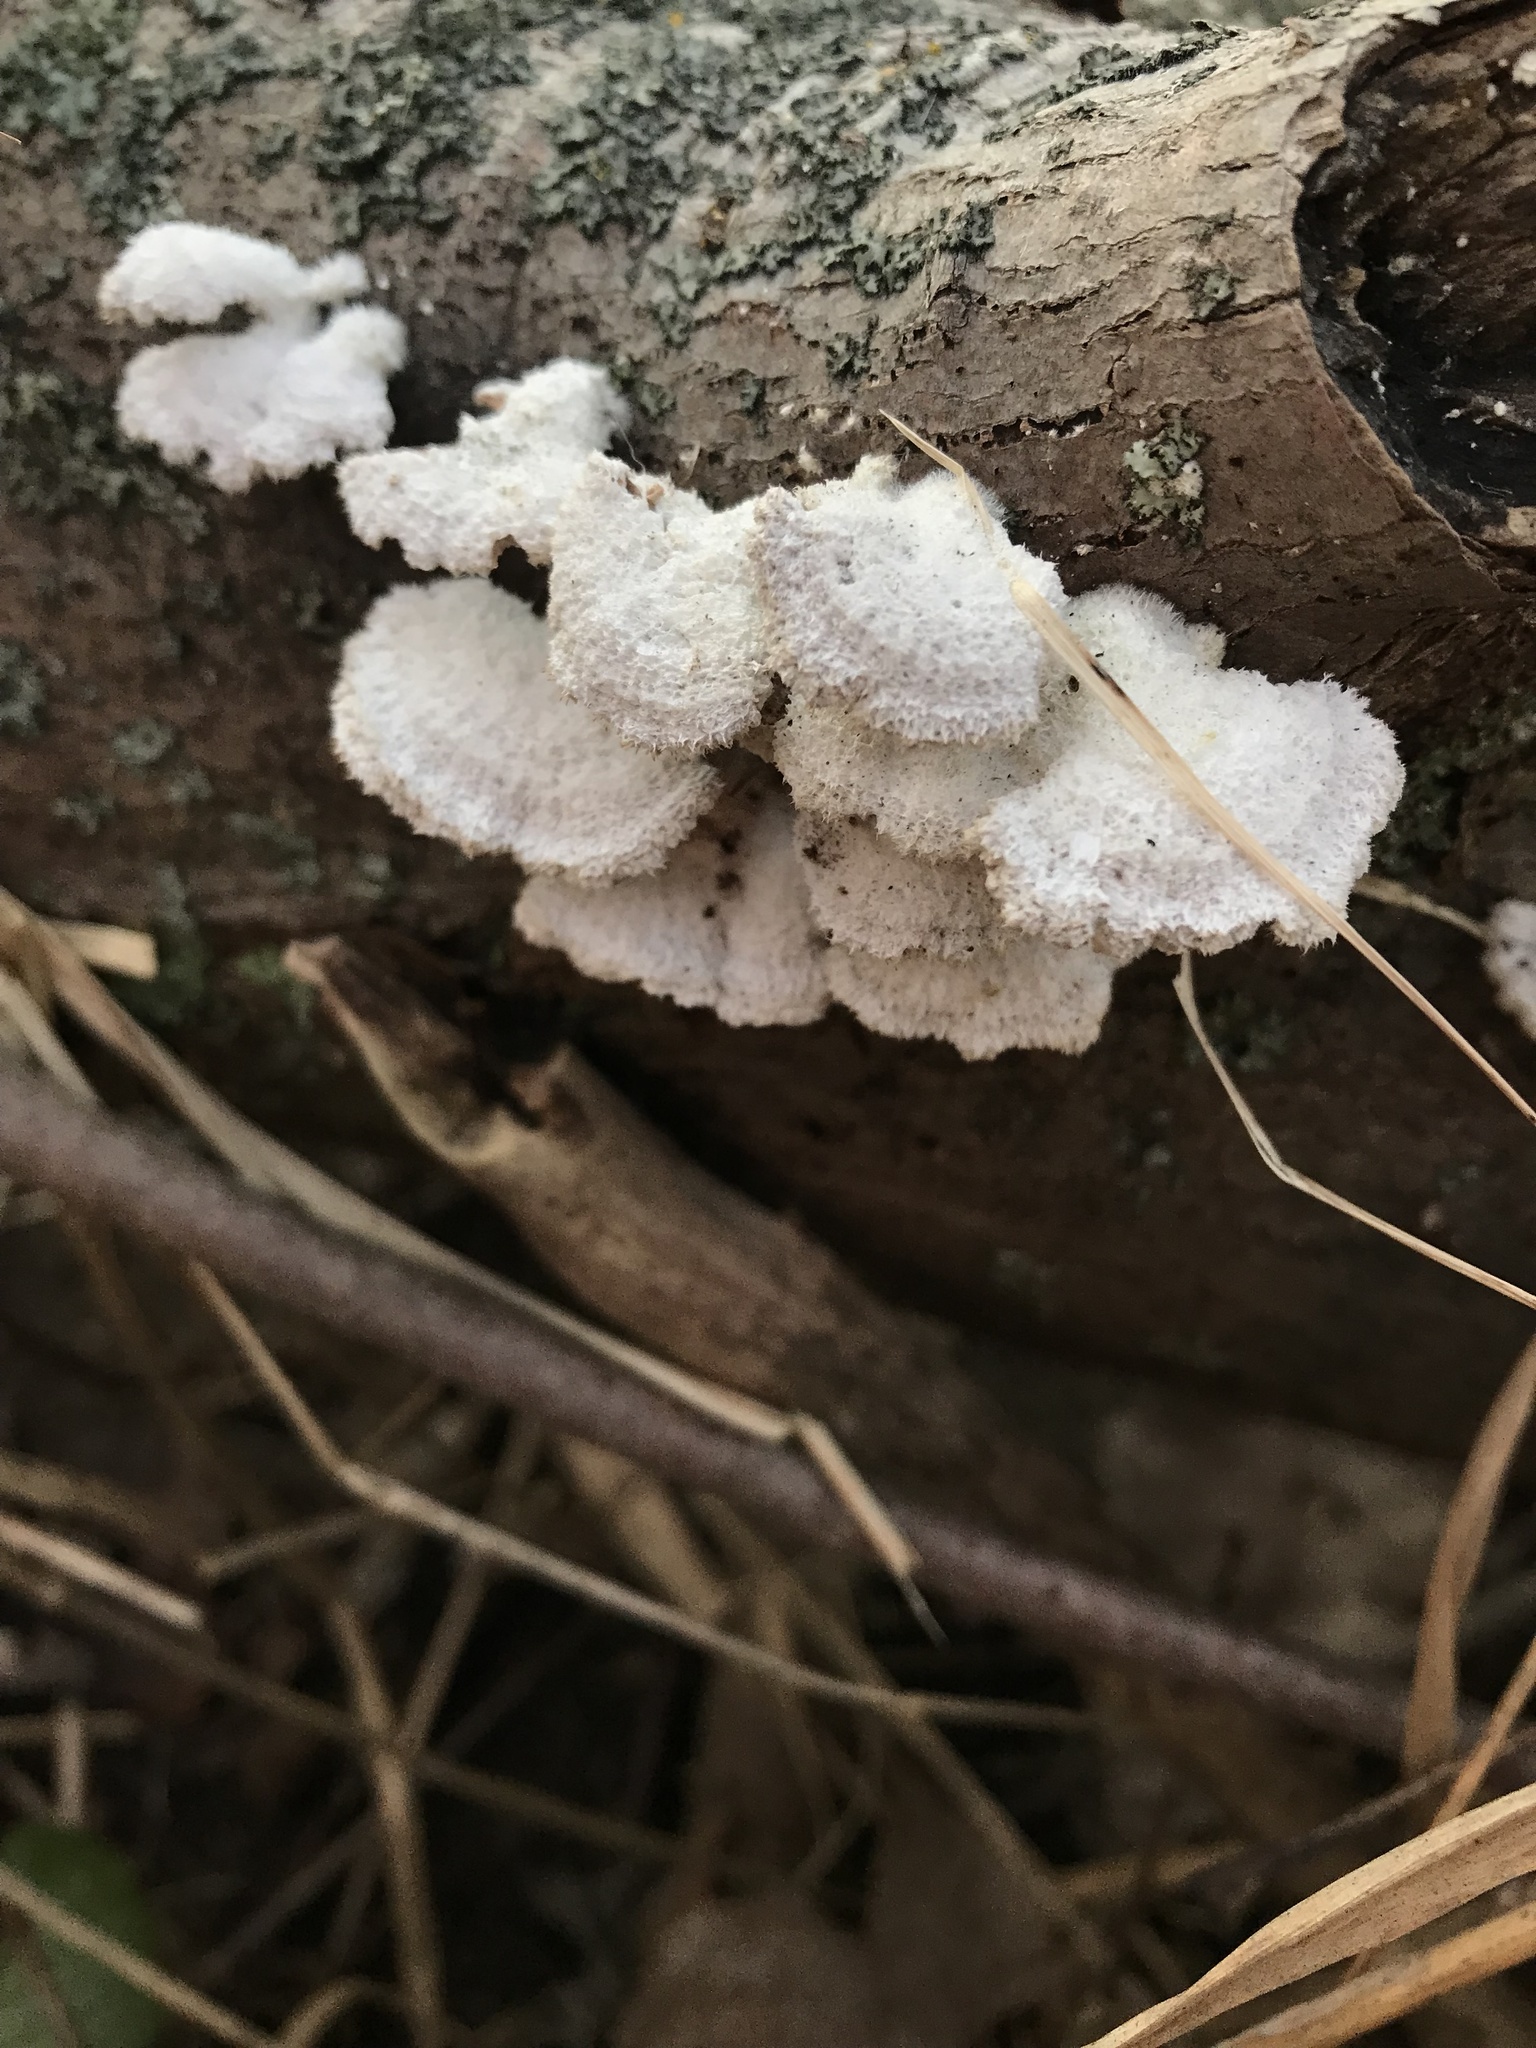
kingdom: Fungi
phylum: Basidiomycota
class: Agaricomycetes
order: Agaricales
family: Schizophyllaceae
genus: Schizophyllum
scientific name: Schizophyllum commune
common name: Common porecrust
